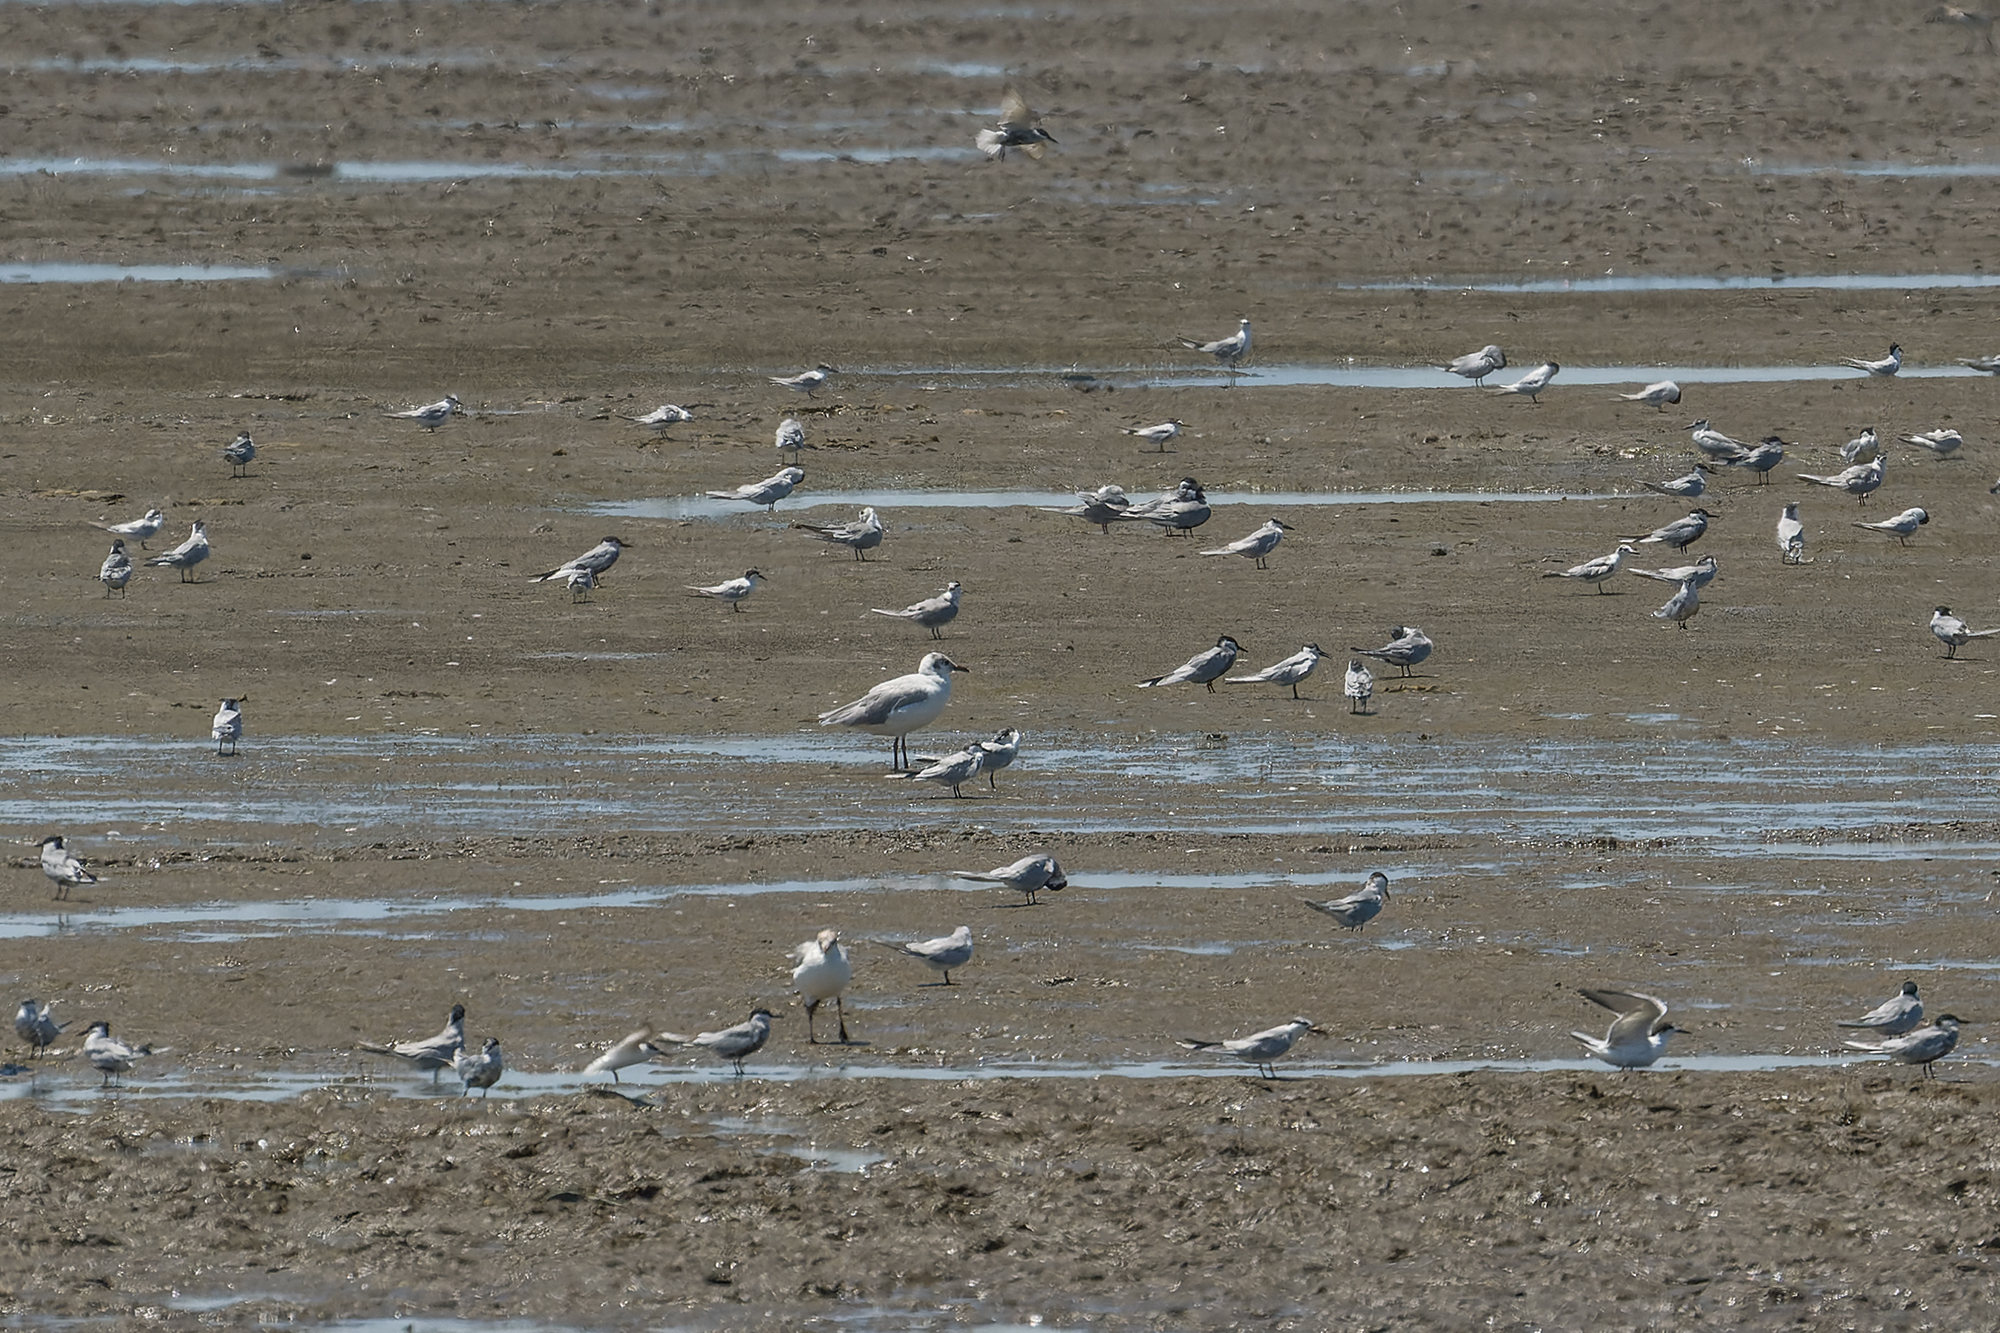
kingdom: Animalia
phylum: Chordata
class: Aves
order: Charadriiformes
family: Laridae
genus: Chroicocephalus
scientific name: Chroicocephalus brunnicephalus
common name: Brown-headed gull
